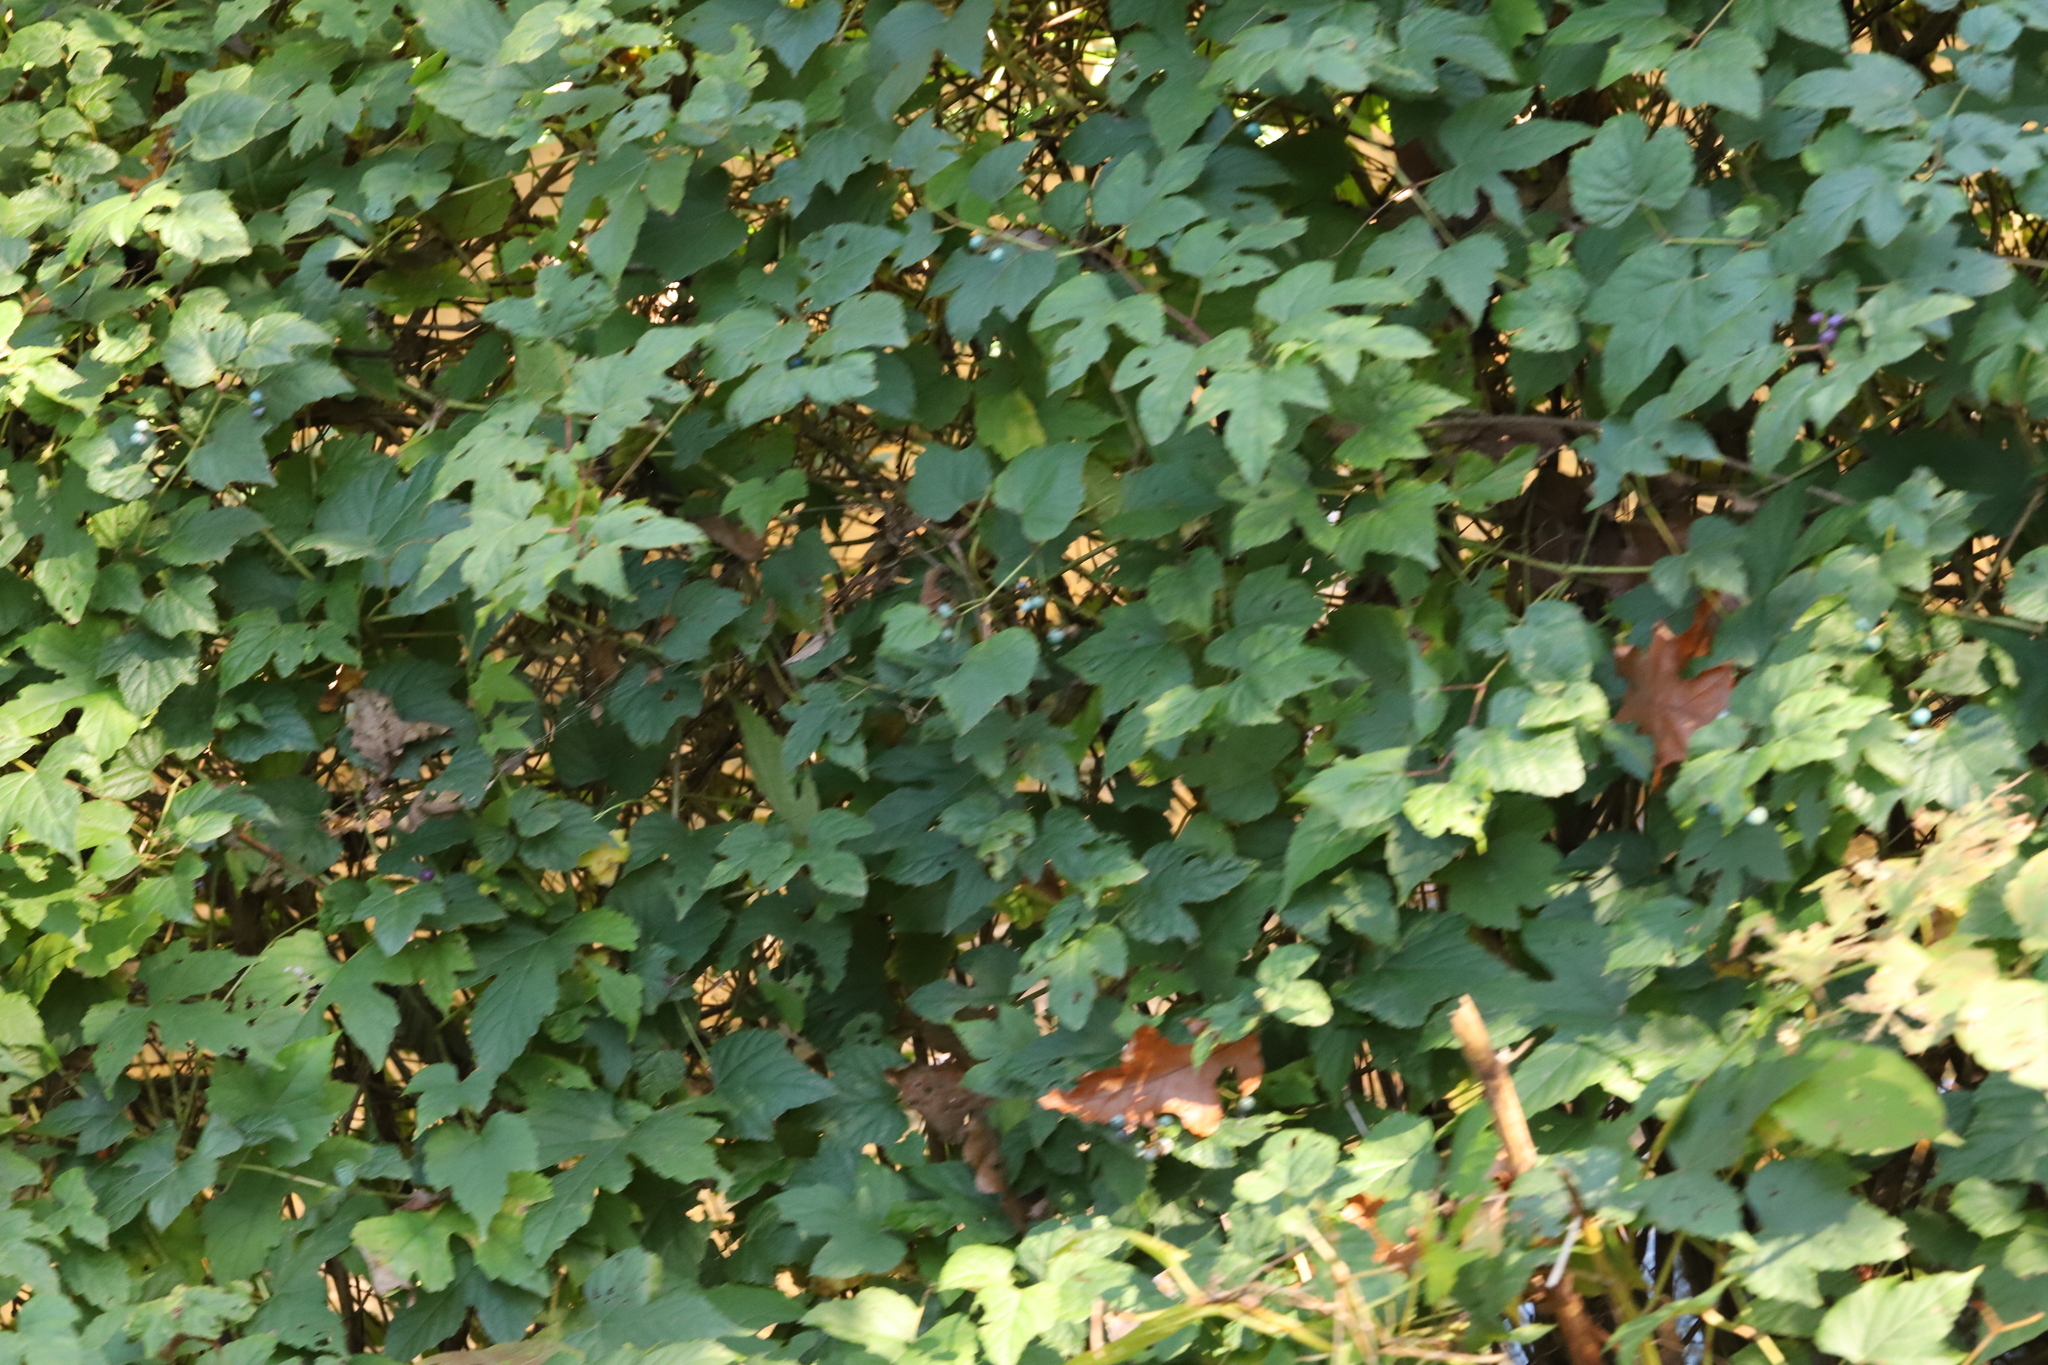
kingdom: Plantae
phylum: Tracheophyta
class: Magnoliopsida
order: Vitales
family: Vitaceae
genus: Ampelopsis
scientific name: Ampelopsis glandulosa
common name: Amur peppervine
